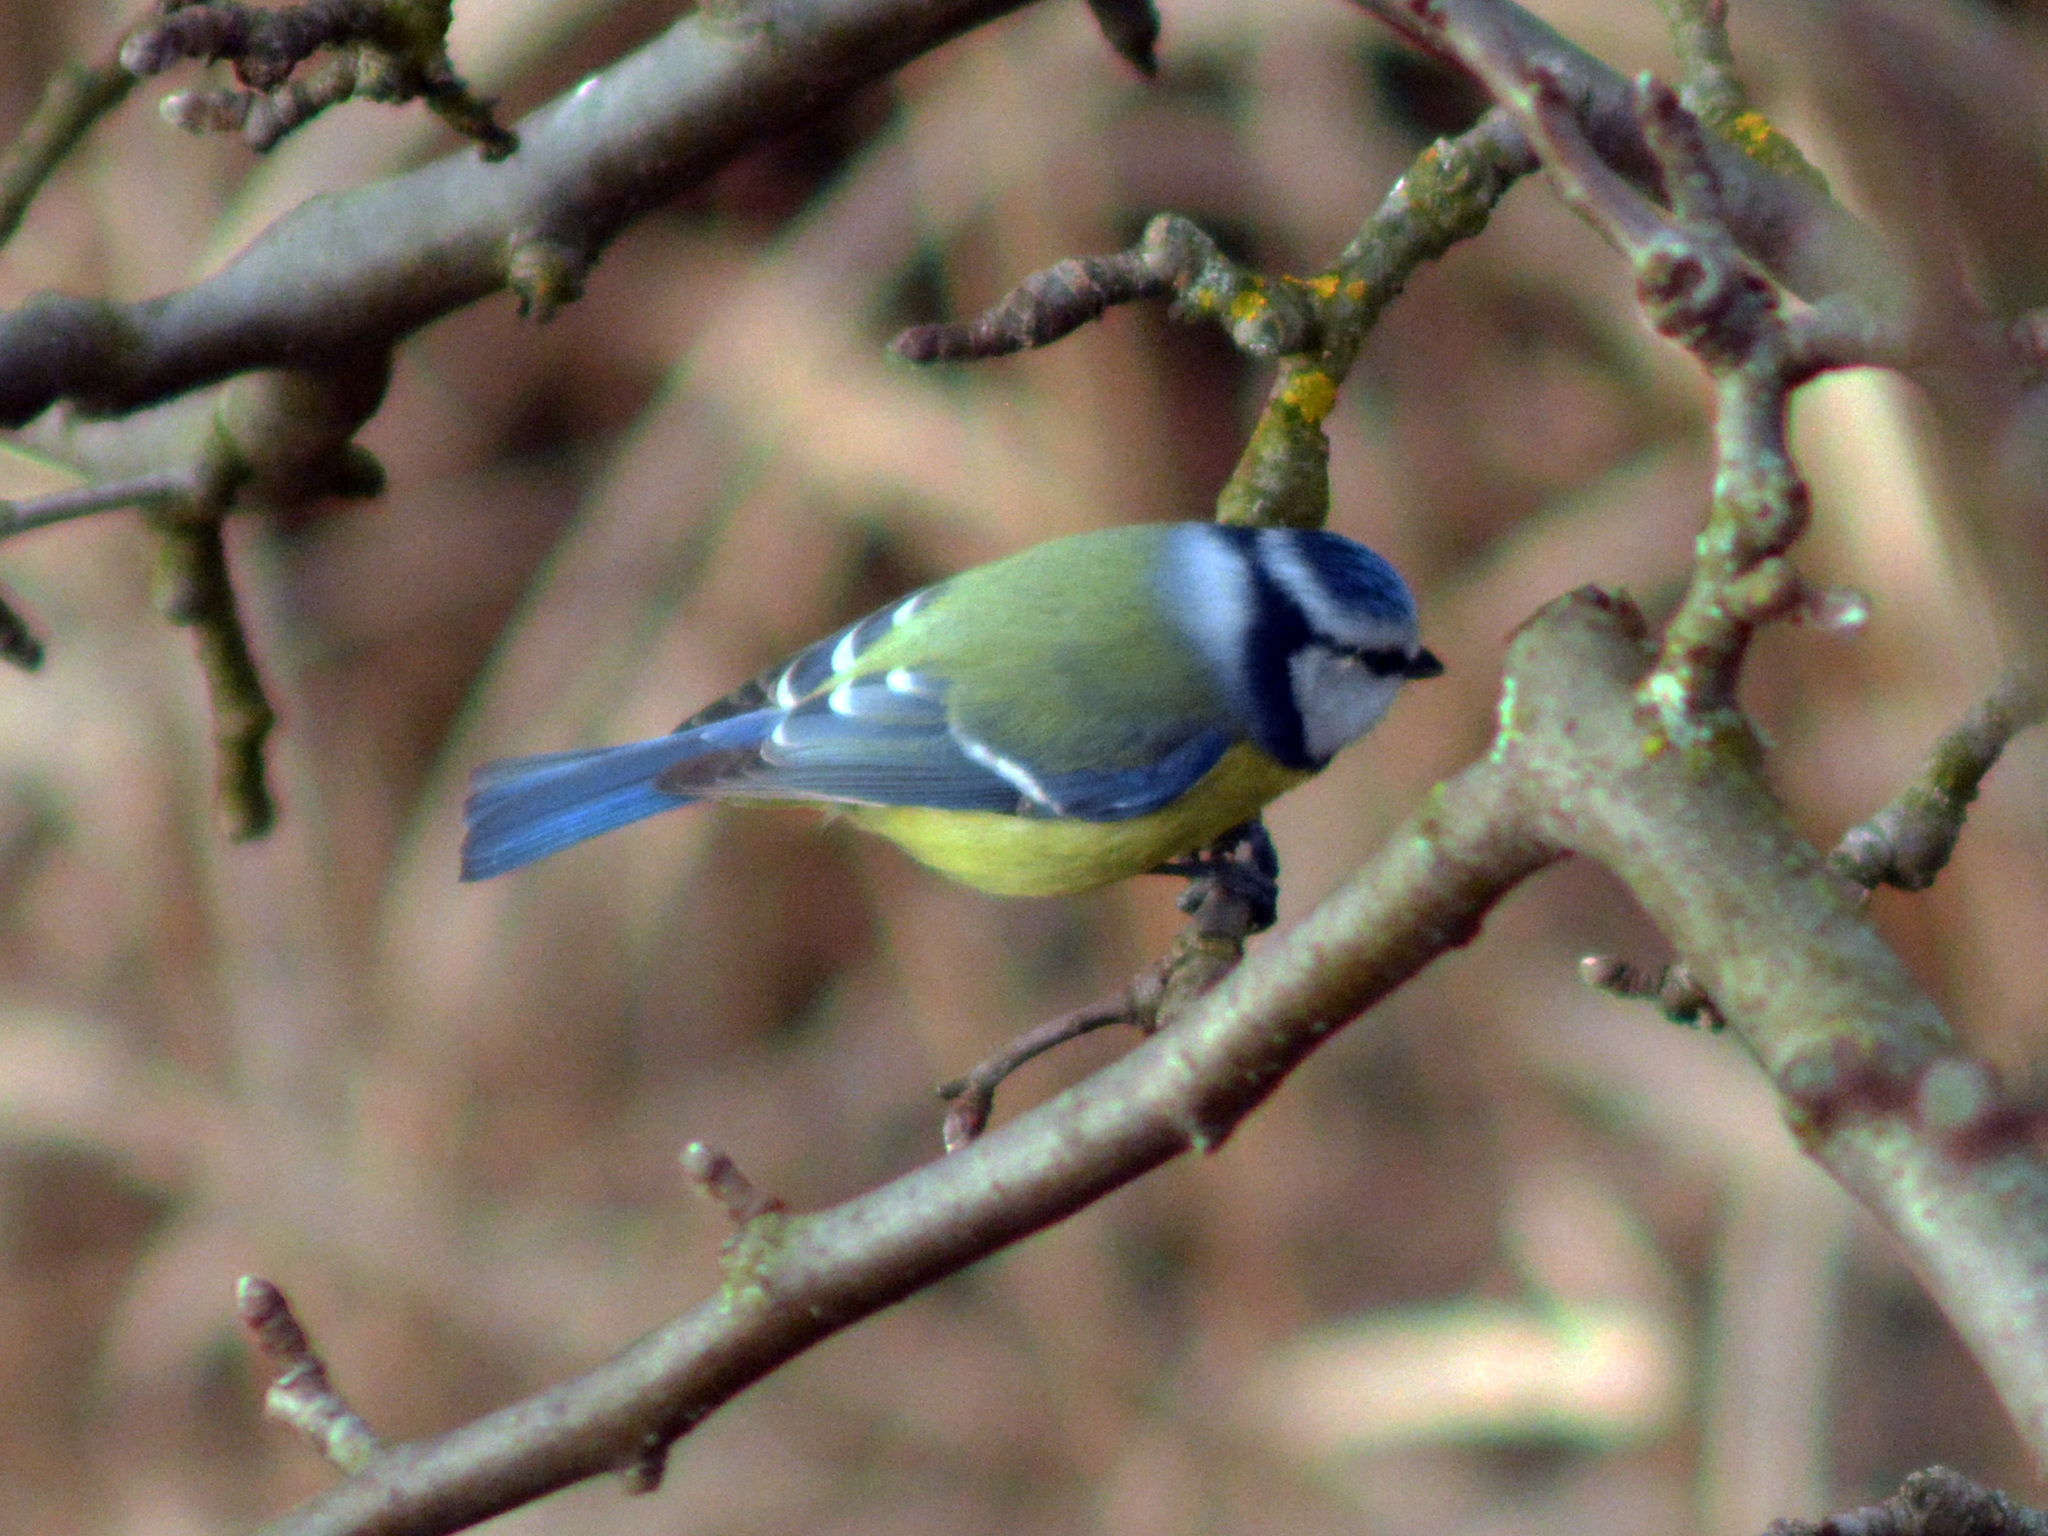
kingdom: Animalia
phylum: Chordata
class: Aves
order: Passeriformes
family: Paridae
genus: Cyanistes
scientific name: Cyanistes caeruleus
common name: Eurasian blue tit
